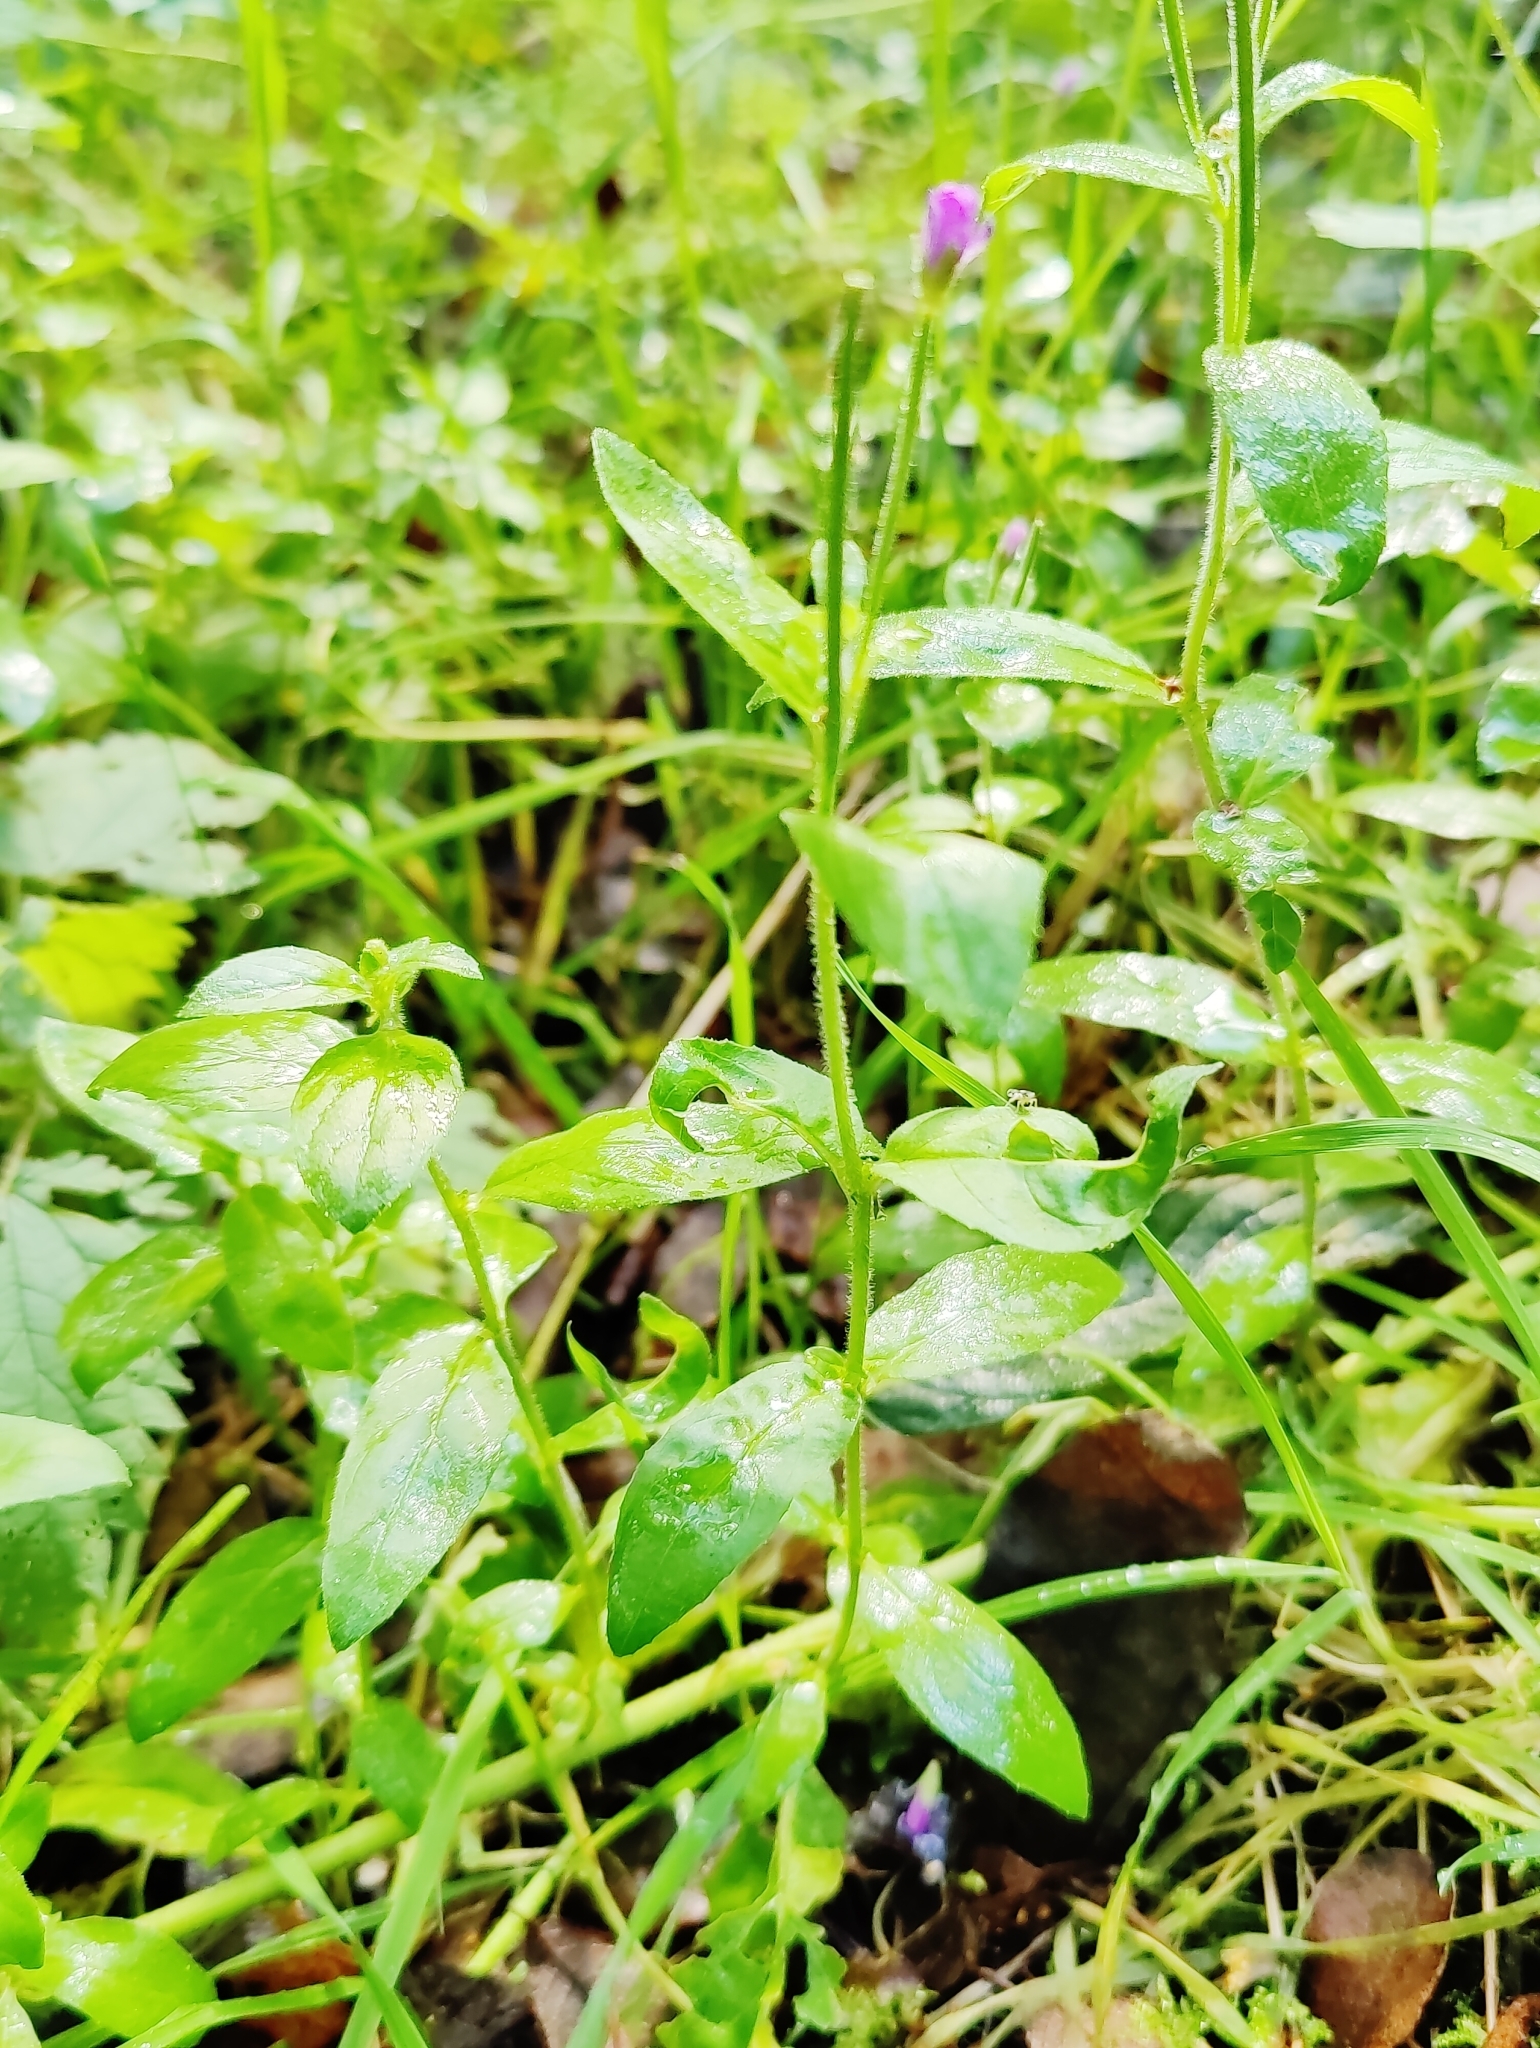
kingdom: Plantae
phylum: Tracheophyta
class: Magnoliopsida
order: Myrtales
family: Onagraceae
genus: Epilobium
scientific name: Epilobium parviflorum
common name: Hoary willowherb
